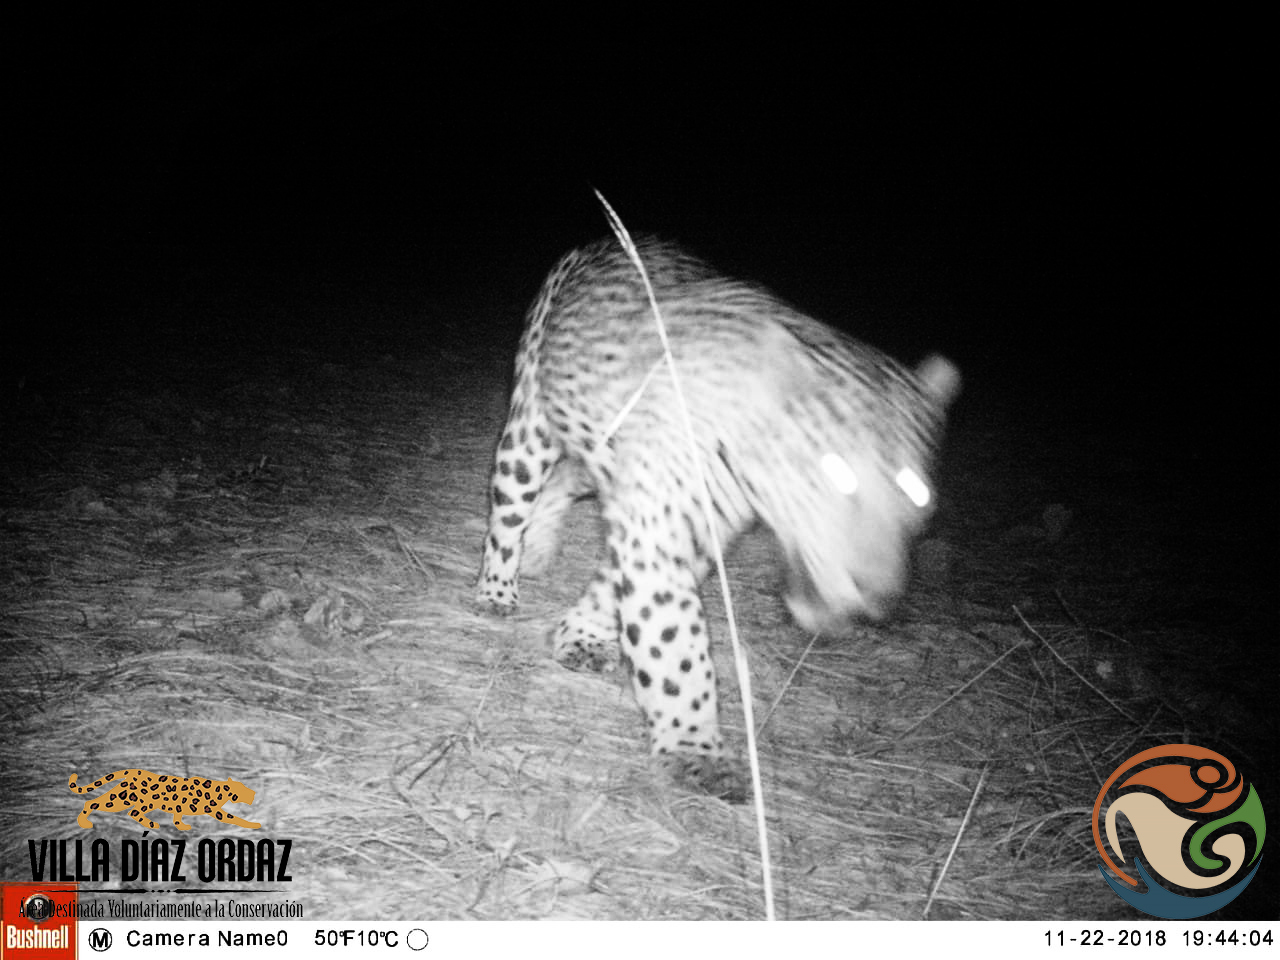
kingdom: Animalia
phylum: Chordata
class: Mammalia
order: Carnivora
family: Felidae
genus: Panthera
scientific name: Panthera onca
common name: Jaguar
